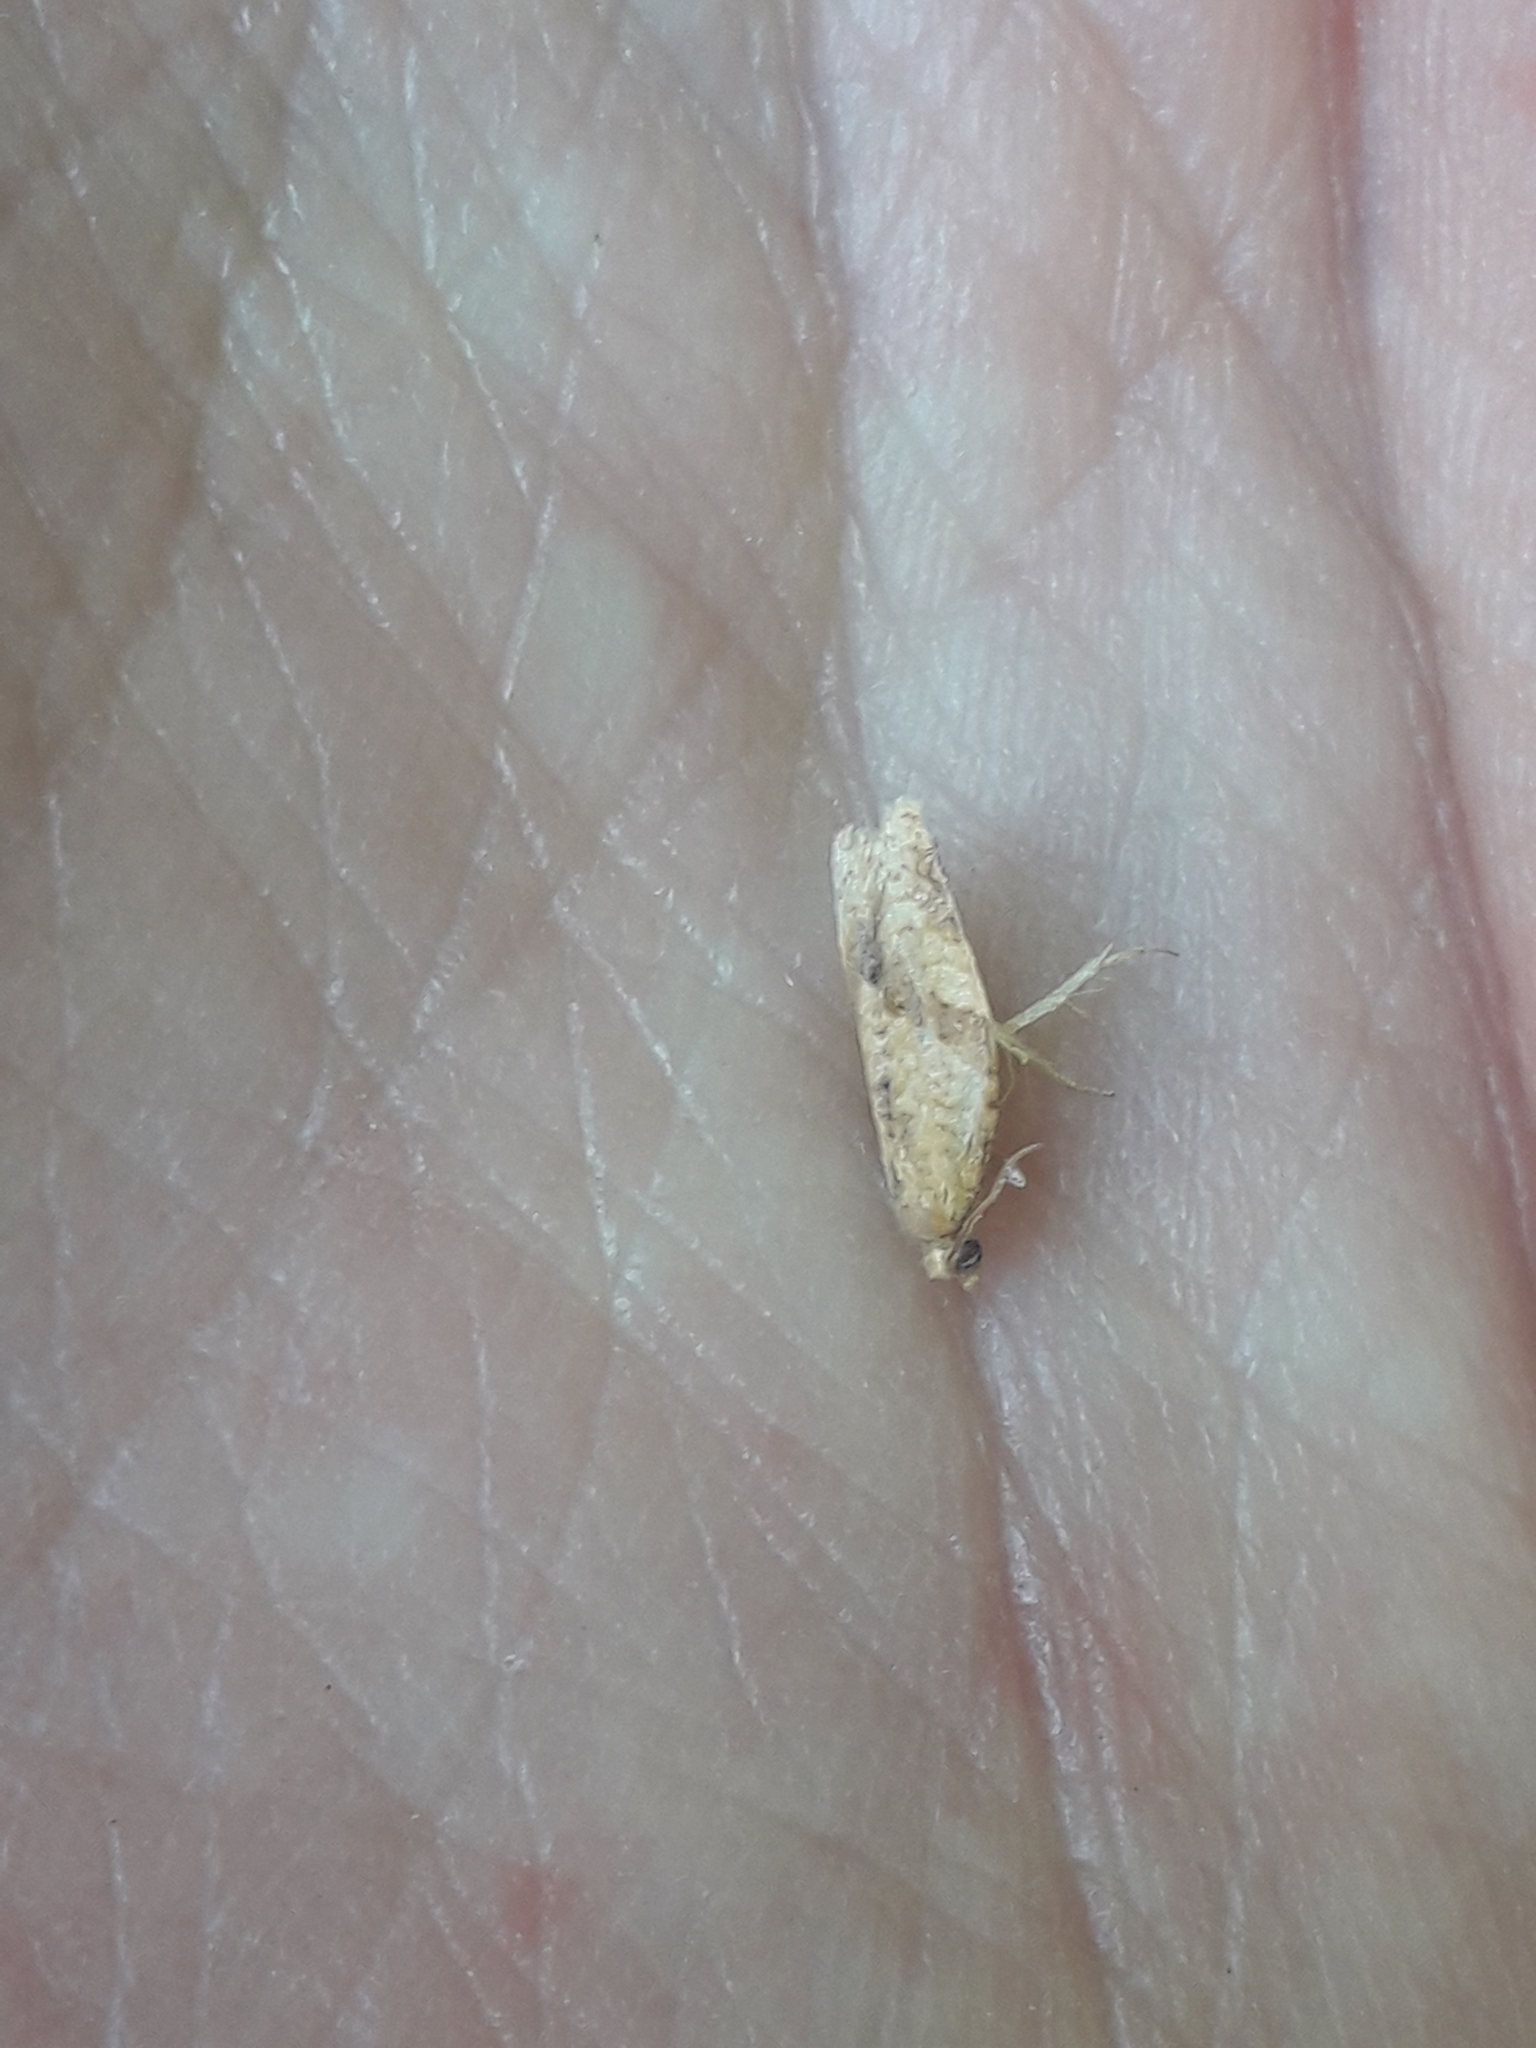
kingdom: Animalia
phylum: Arthropoda
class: Insecta
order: Lepidoptera
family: Tortricidae
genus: Clepsis
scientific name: Clepsis consimilana
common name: Privet tortrix
